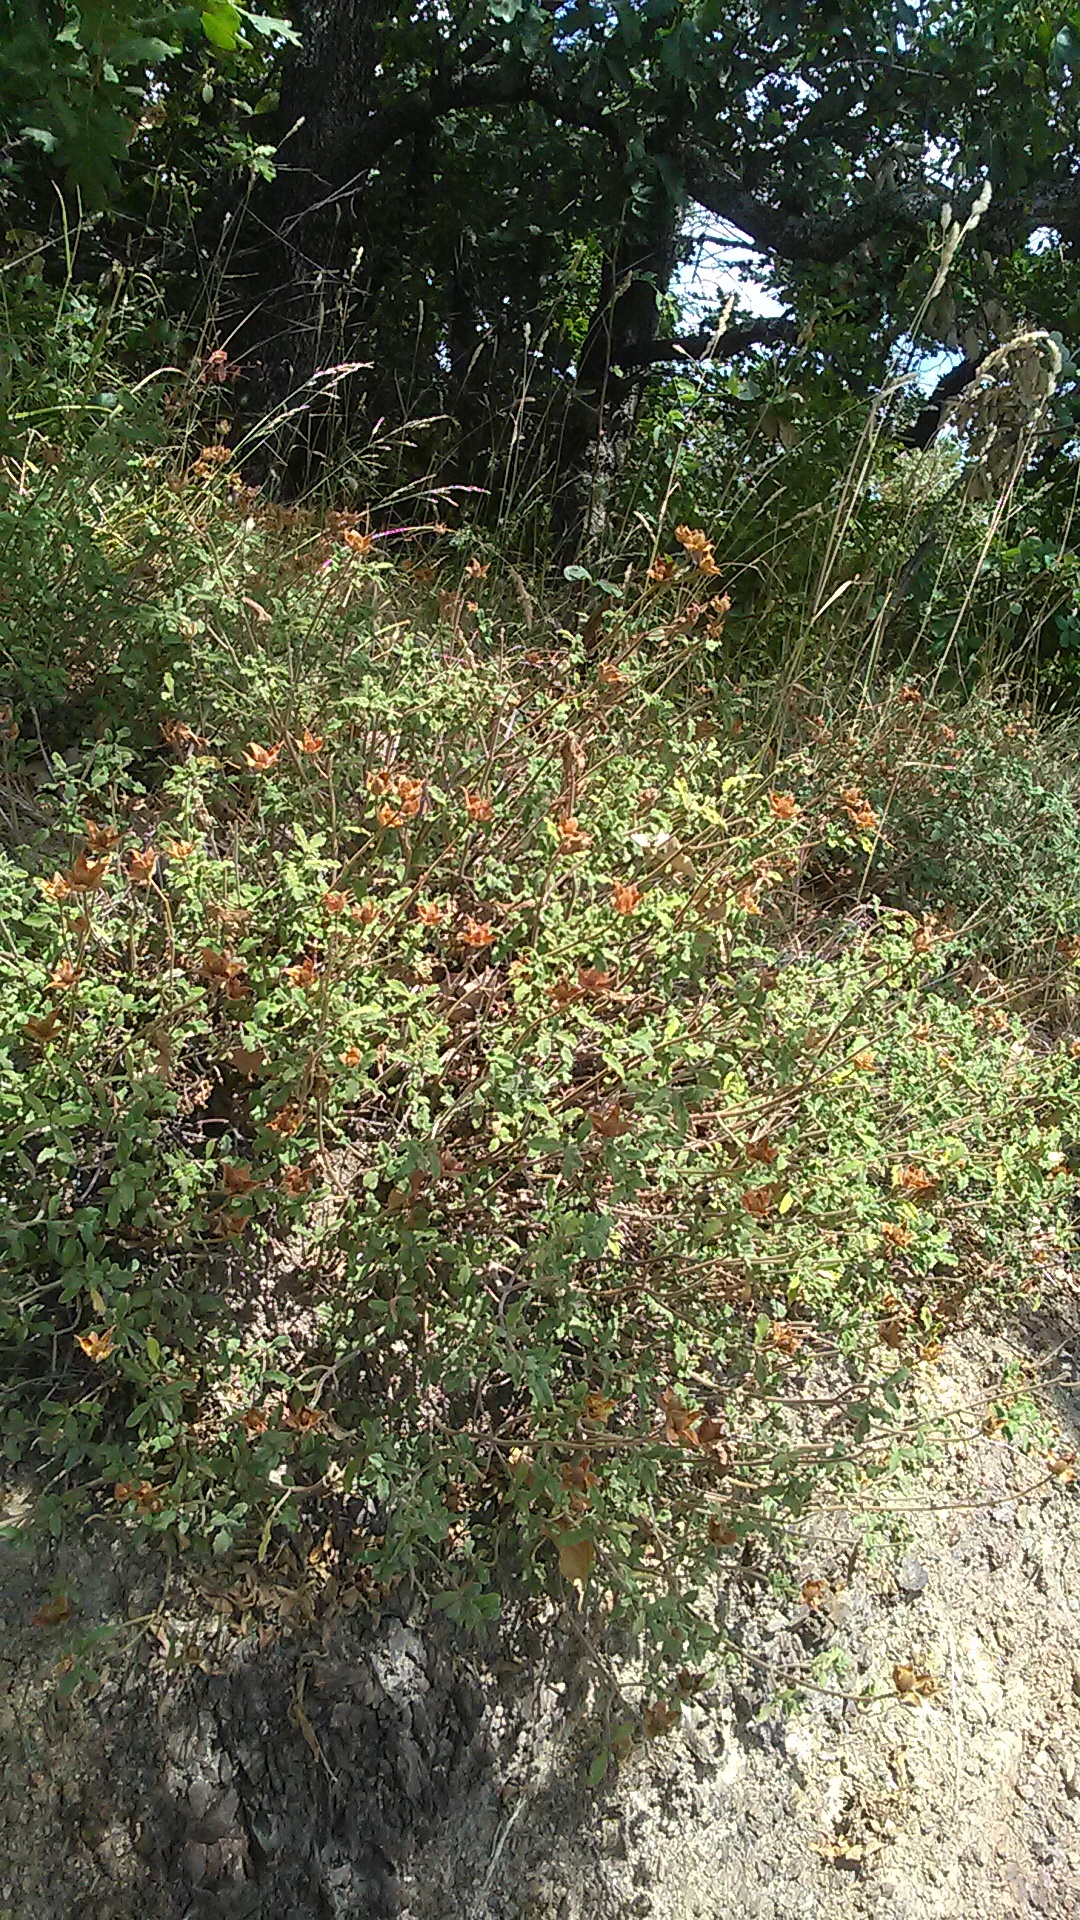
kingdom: Plantae
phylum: Tracheophyta
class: Magnoliopsida
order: Malvales
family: Cistaceae
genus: Cistus
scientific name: Cistus tauricus
